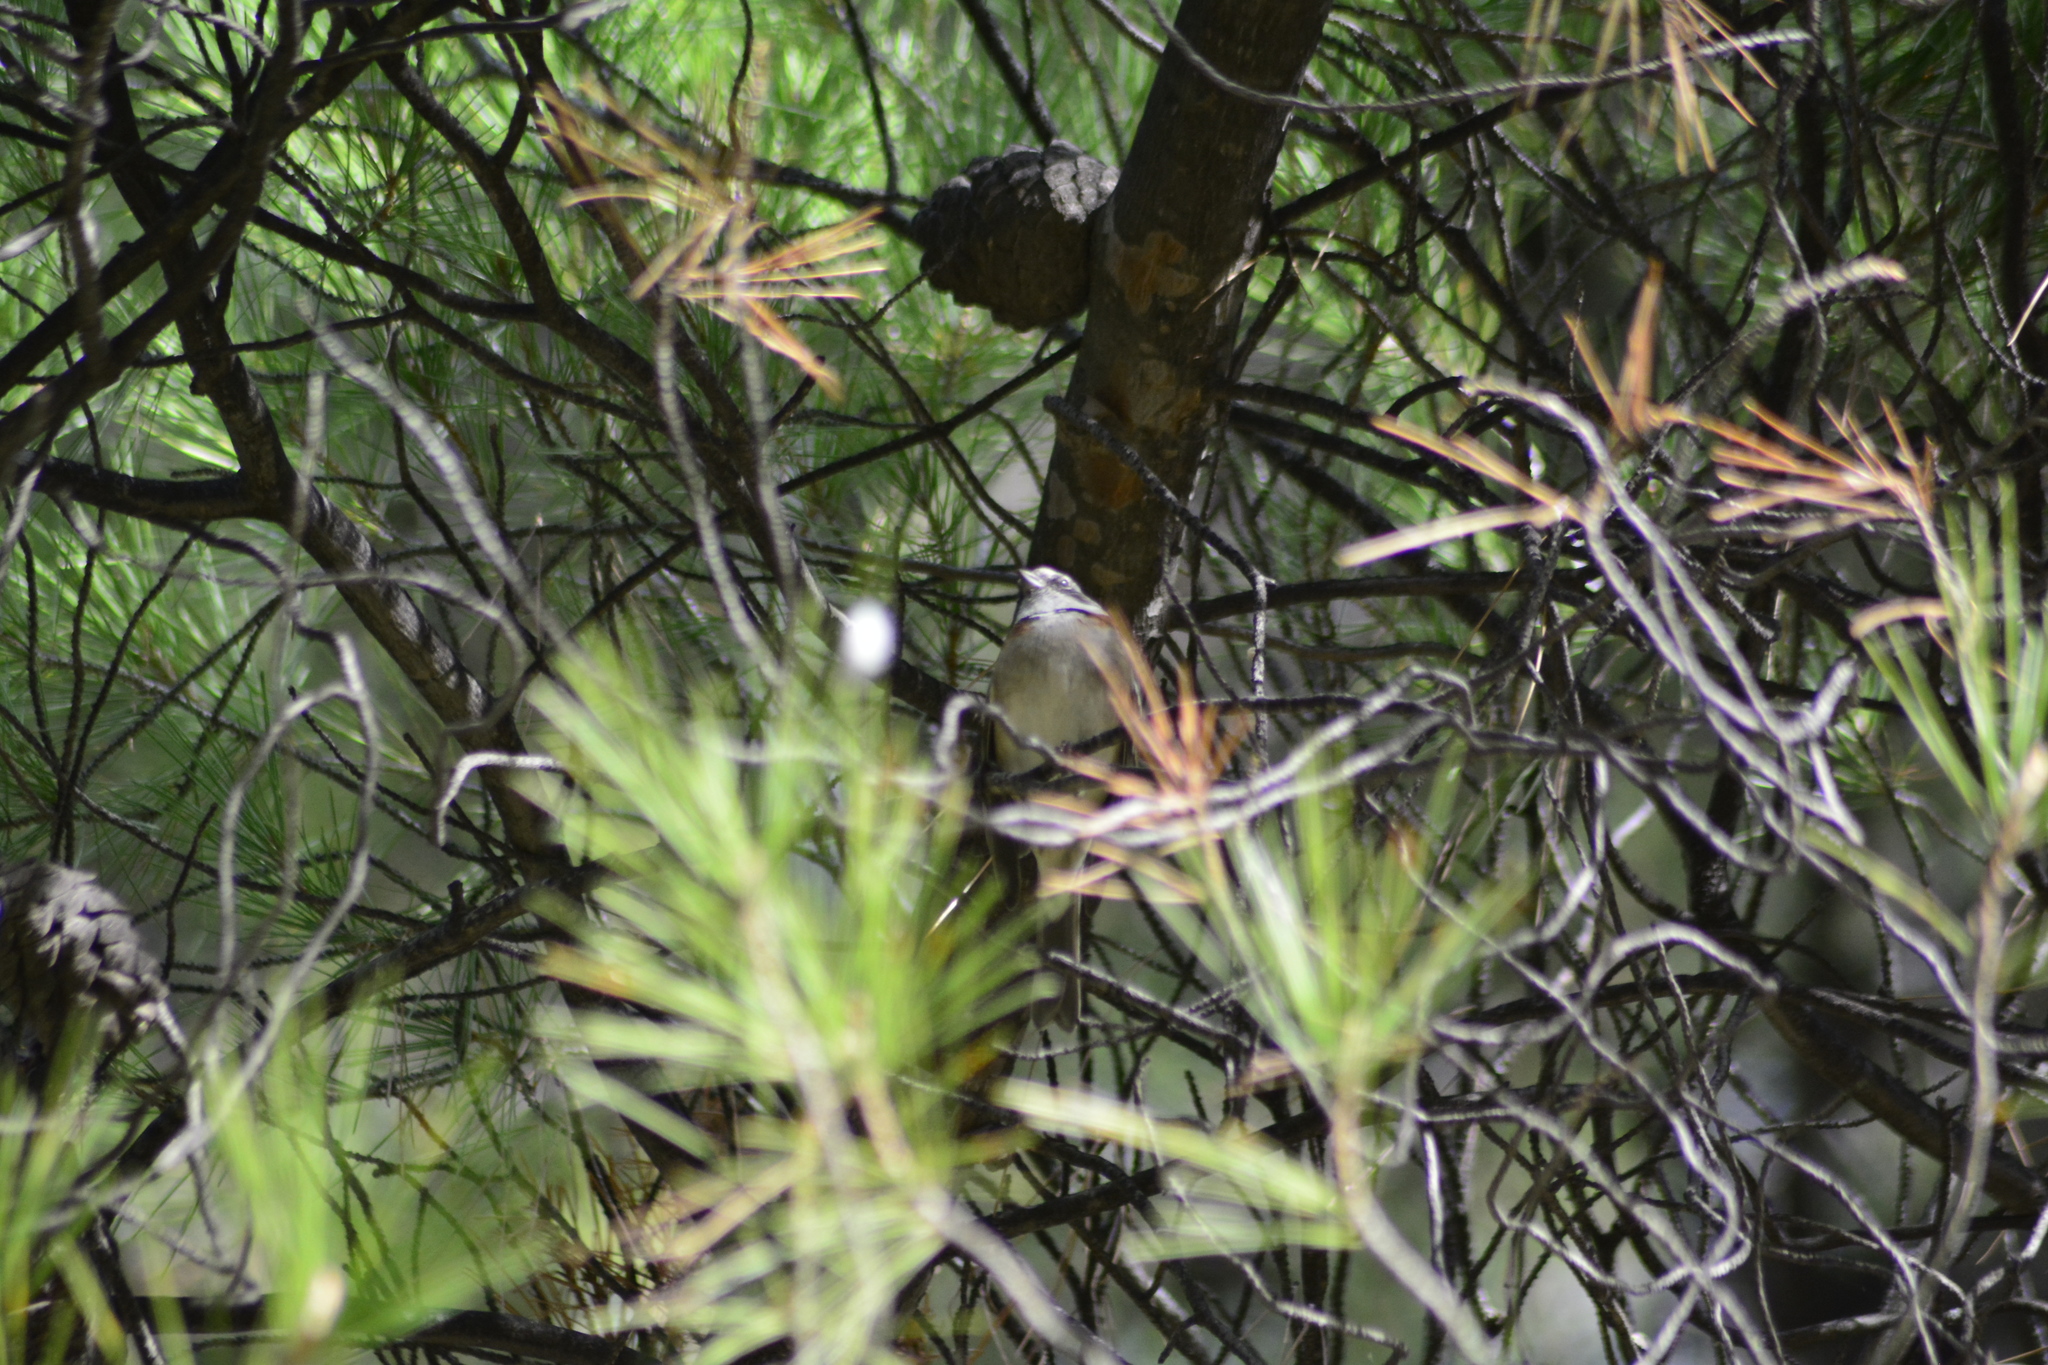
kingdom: Animalia
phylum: Chordata
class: Aves
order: Passeriformes
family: Passerellidae
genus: Zonotrichia
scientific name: Zonotrichia capensis
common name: Rufous-collared sparrow
